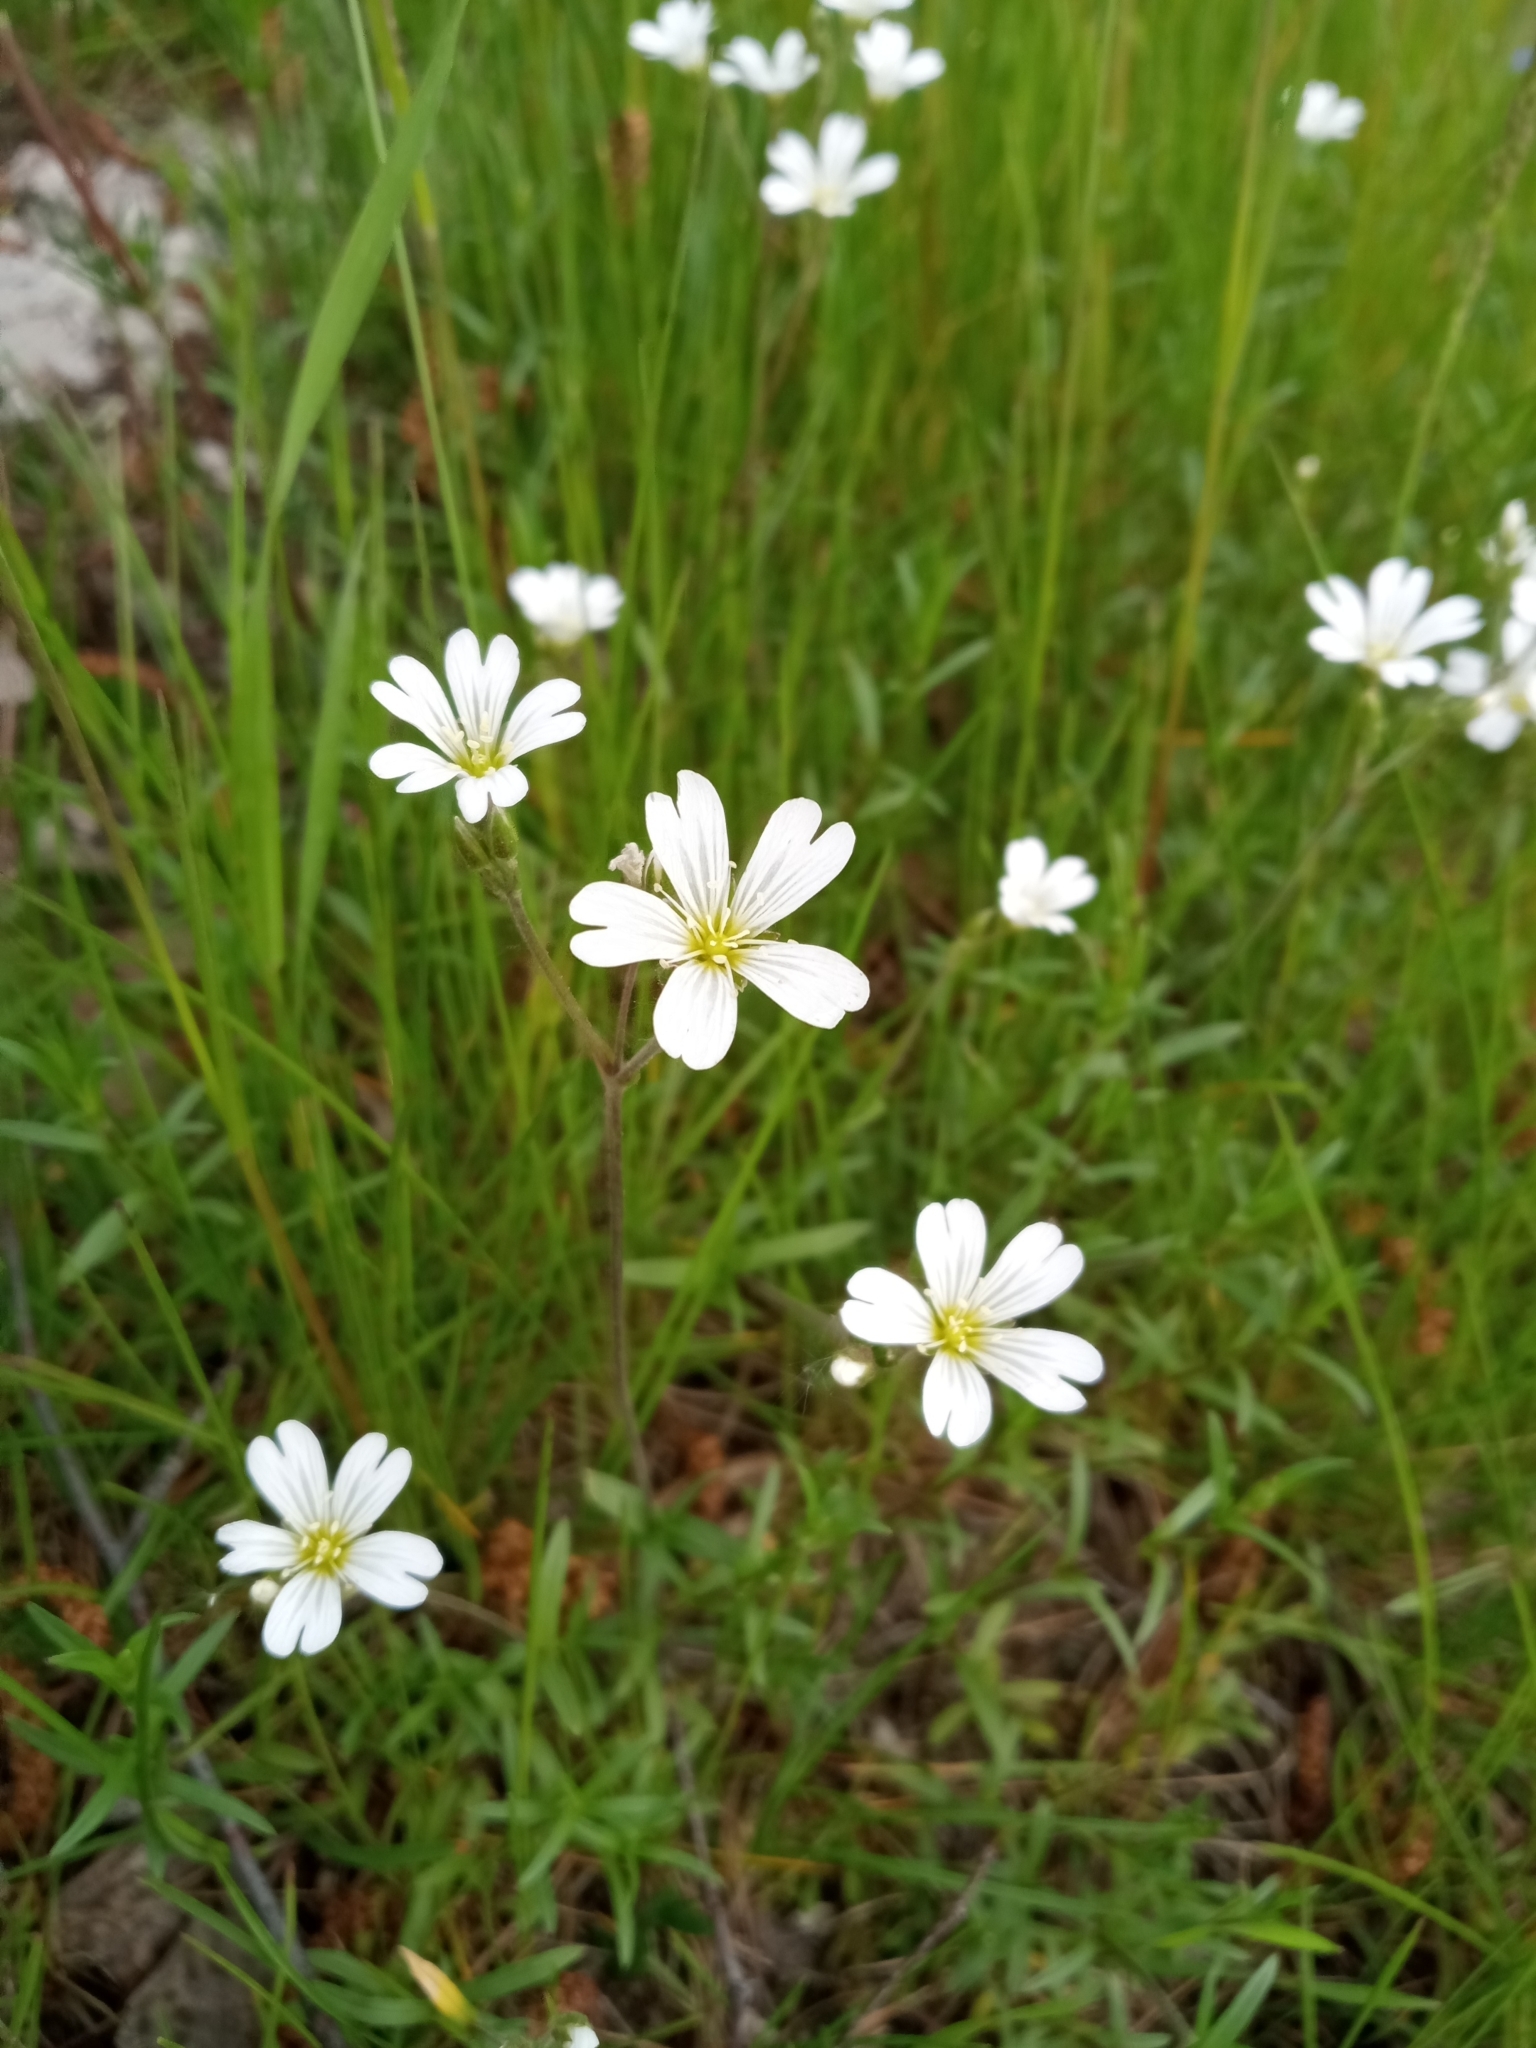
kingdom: Plantae
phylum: Tracheophyta
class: Magnoliopsida
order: Caryophyllales
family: Caryophyllaceae
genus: Cerastium
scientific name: Cerastium arvense
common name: Field mouse-ear
